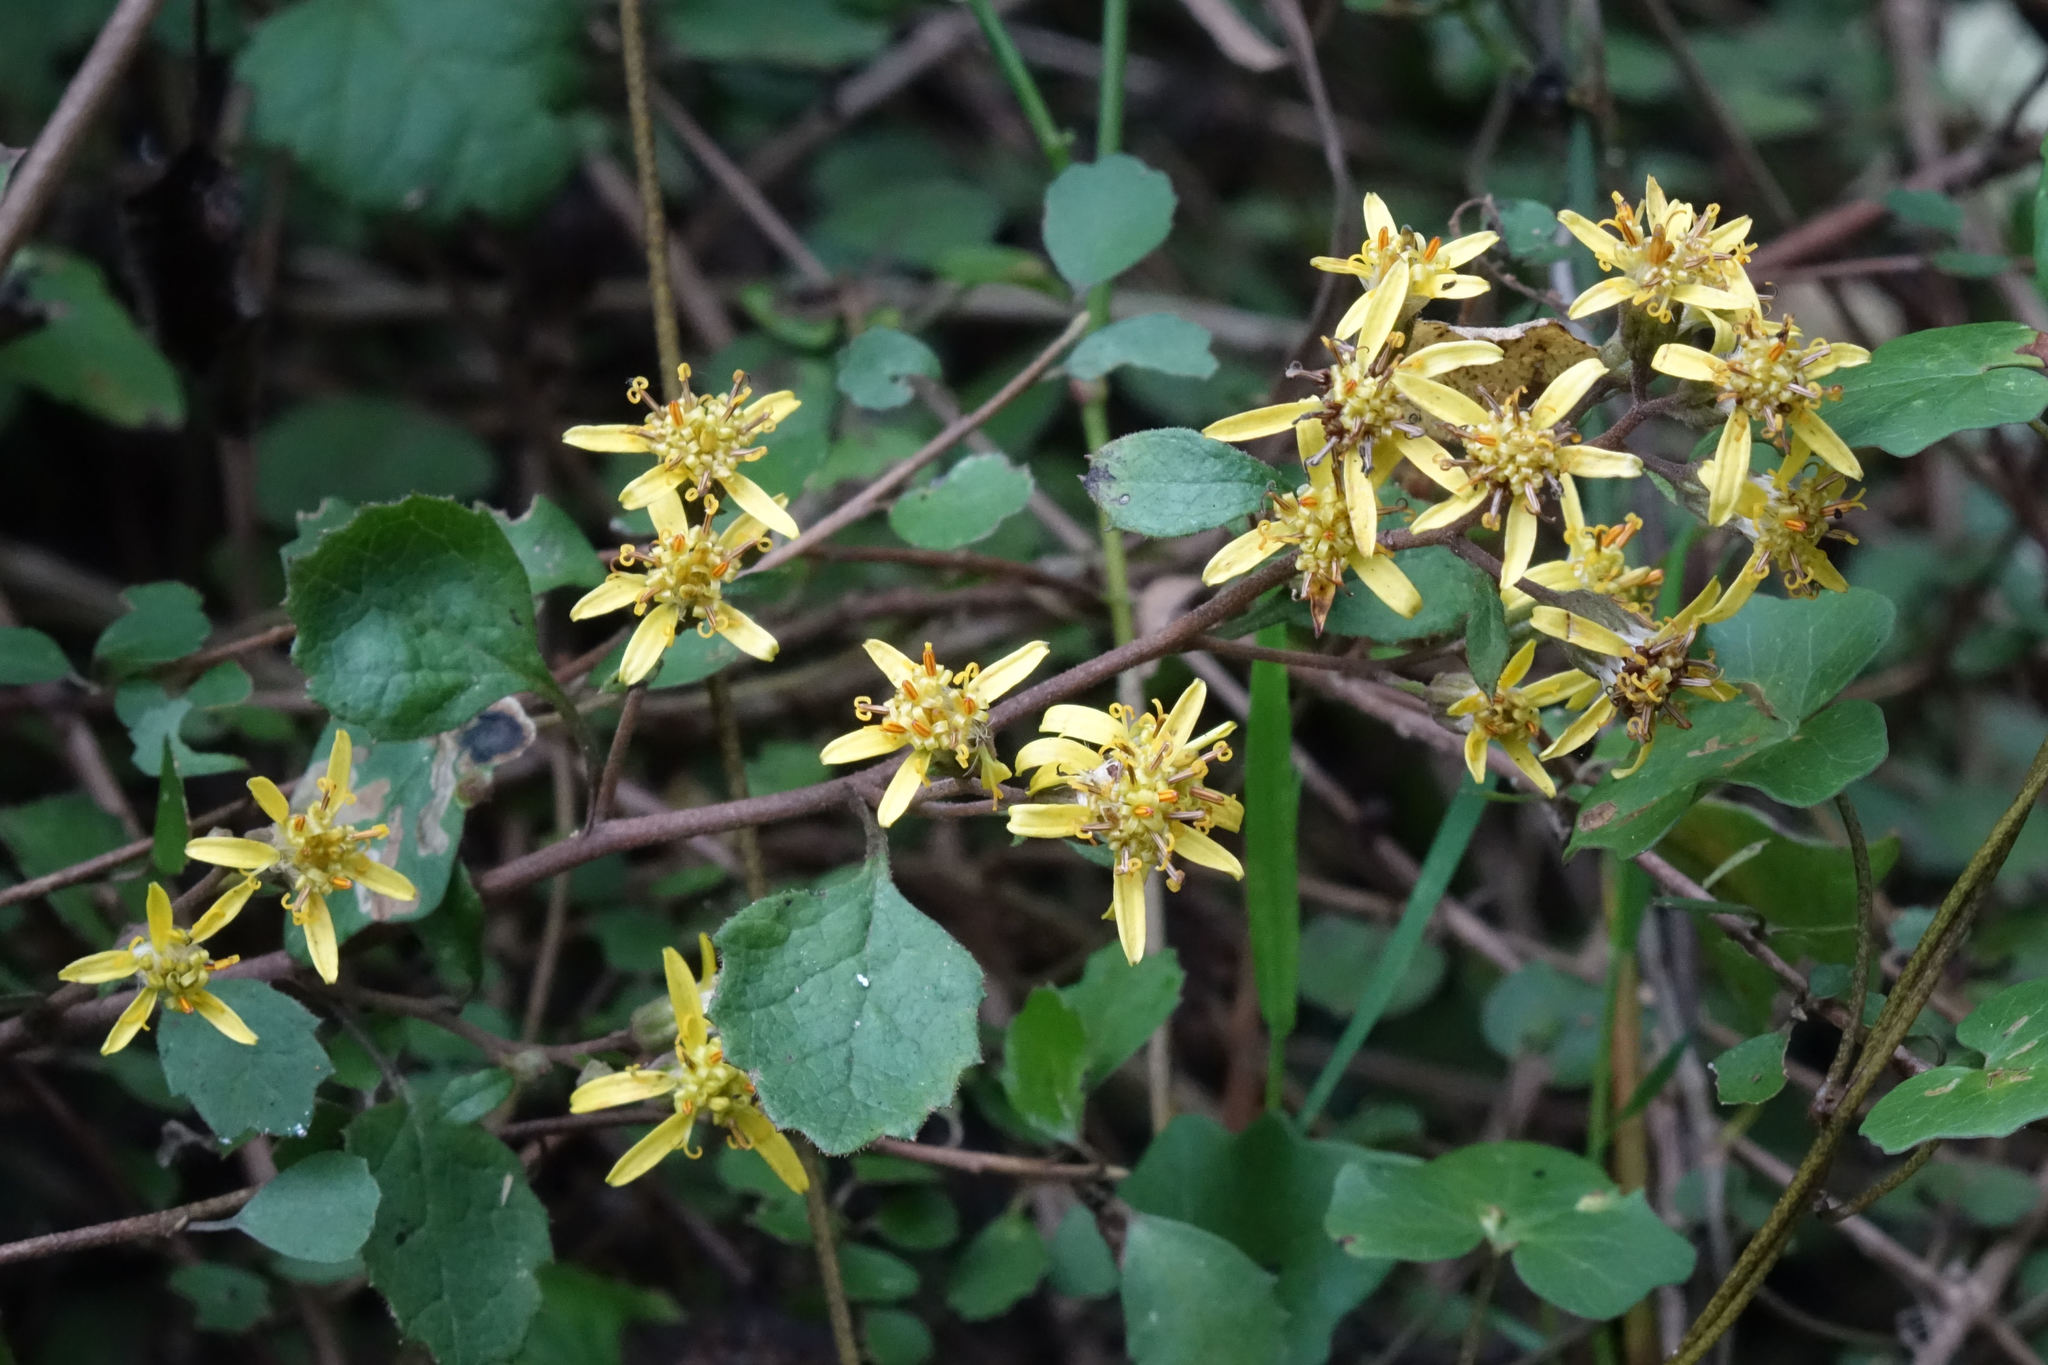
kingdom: Plantae
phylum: Tracheophyta
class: Magnoliopsida
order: Asterales
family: Asteraceae
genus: Brachyglottis
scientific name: Brachyglottis sciadophila
